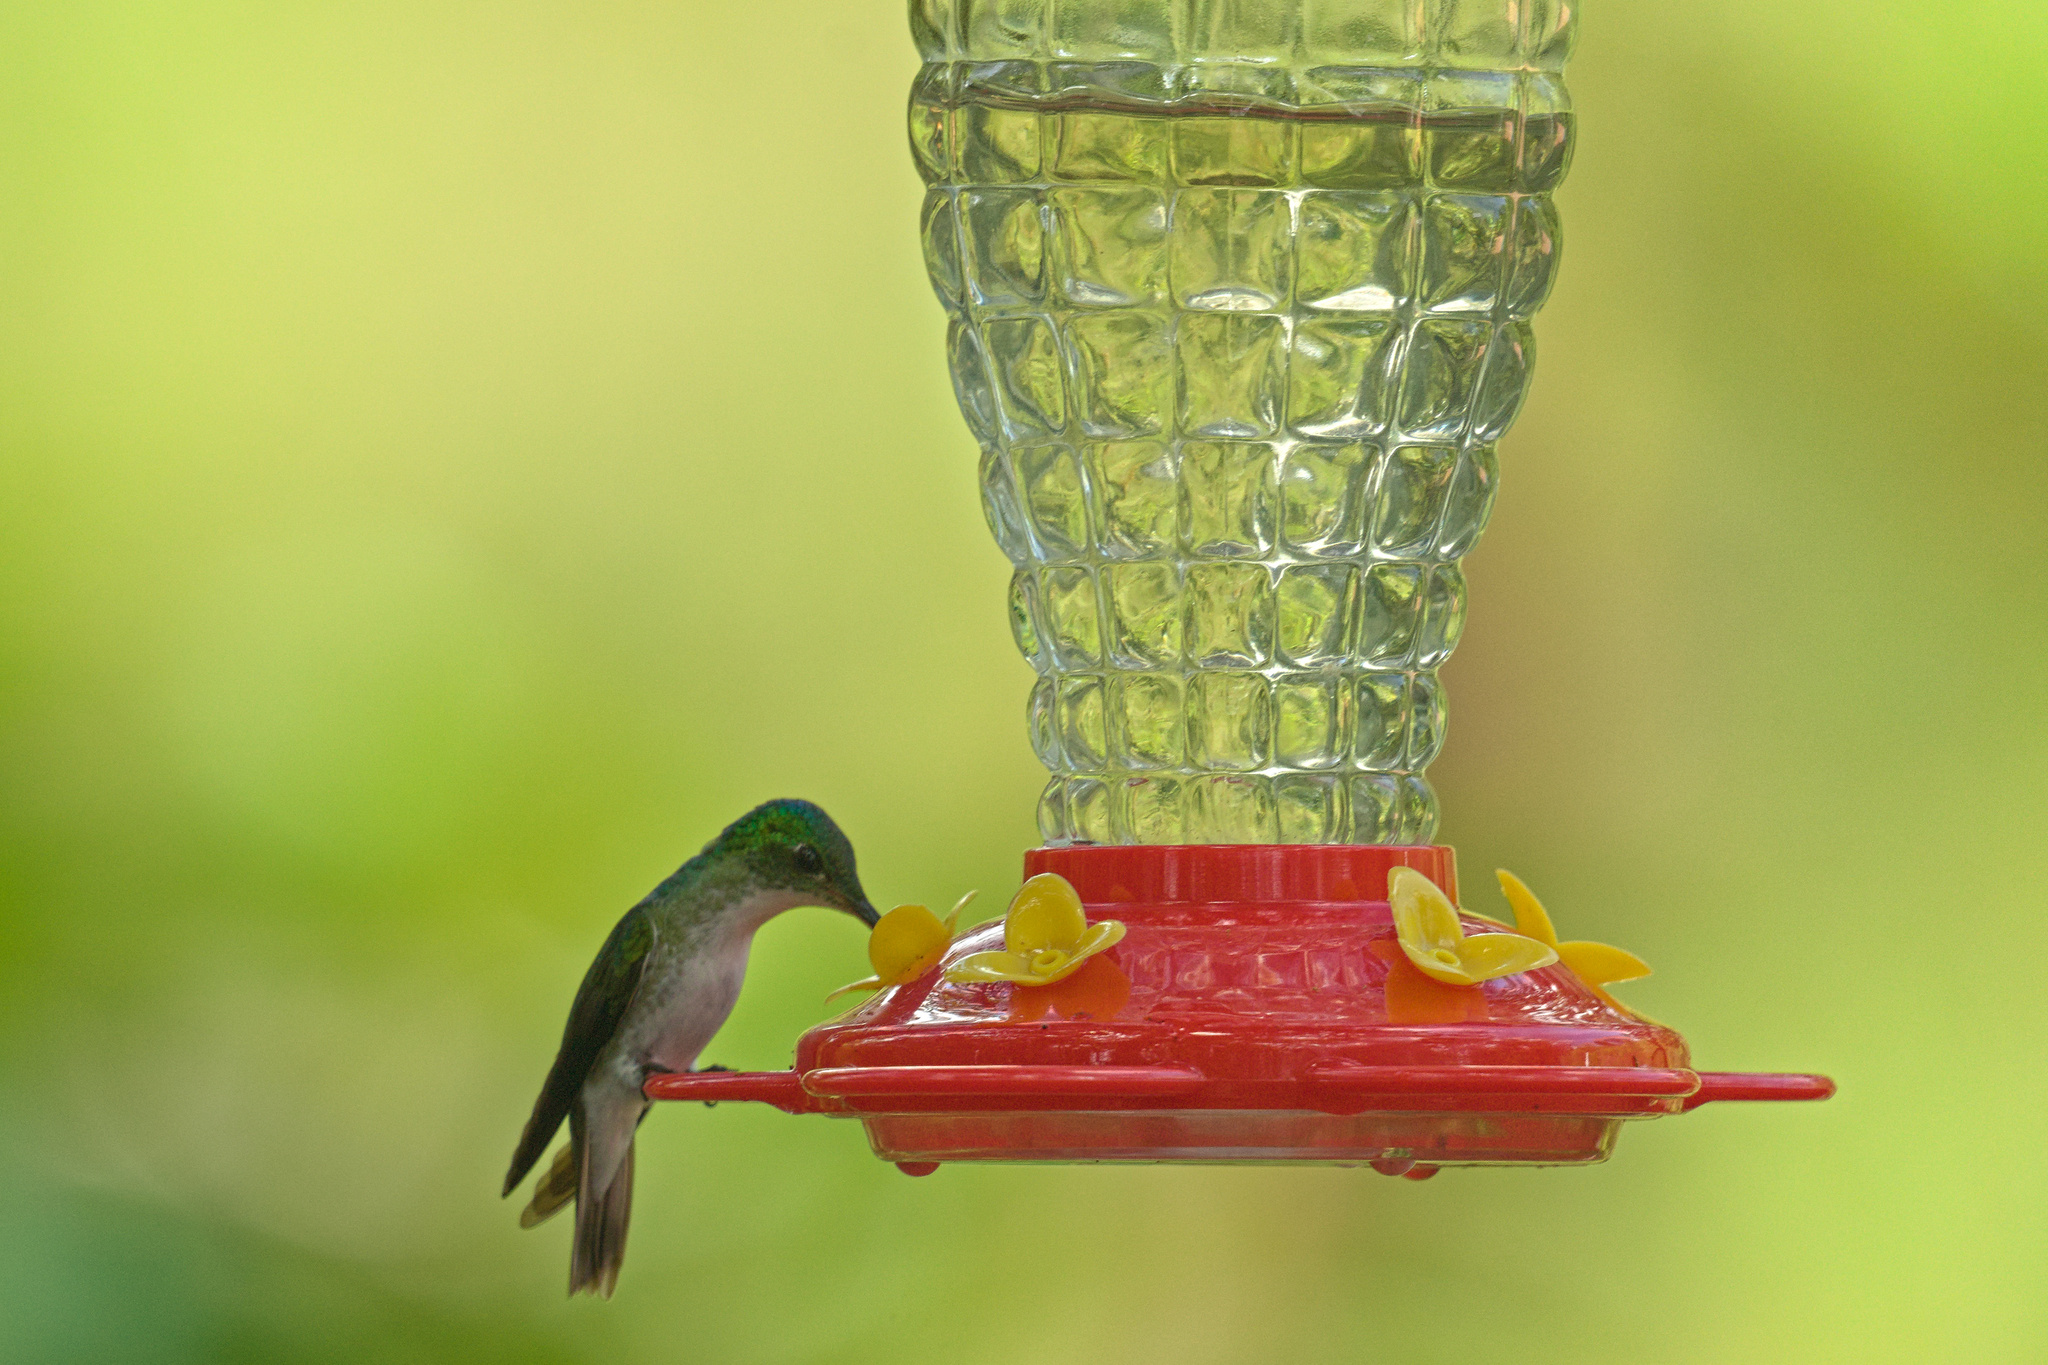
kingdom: Animalia
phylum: Chordata
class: Aves
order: Apodiformes
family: Trochilidae
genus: Uranomitra
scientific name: Uranomitra franciae
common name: Andean emerald
